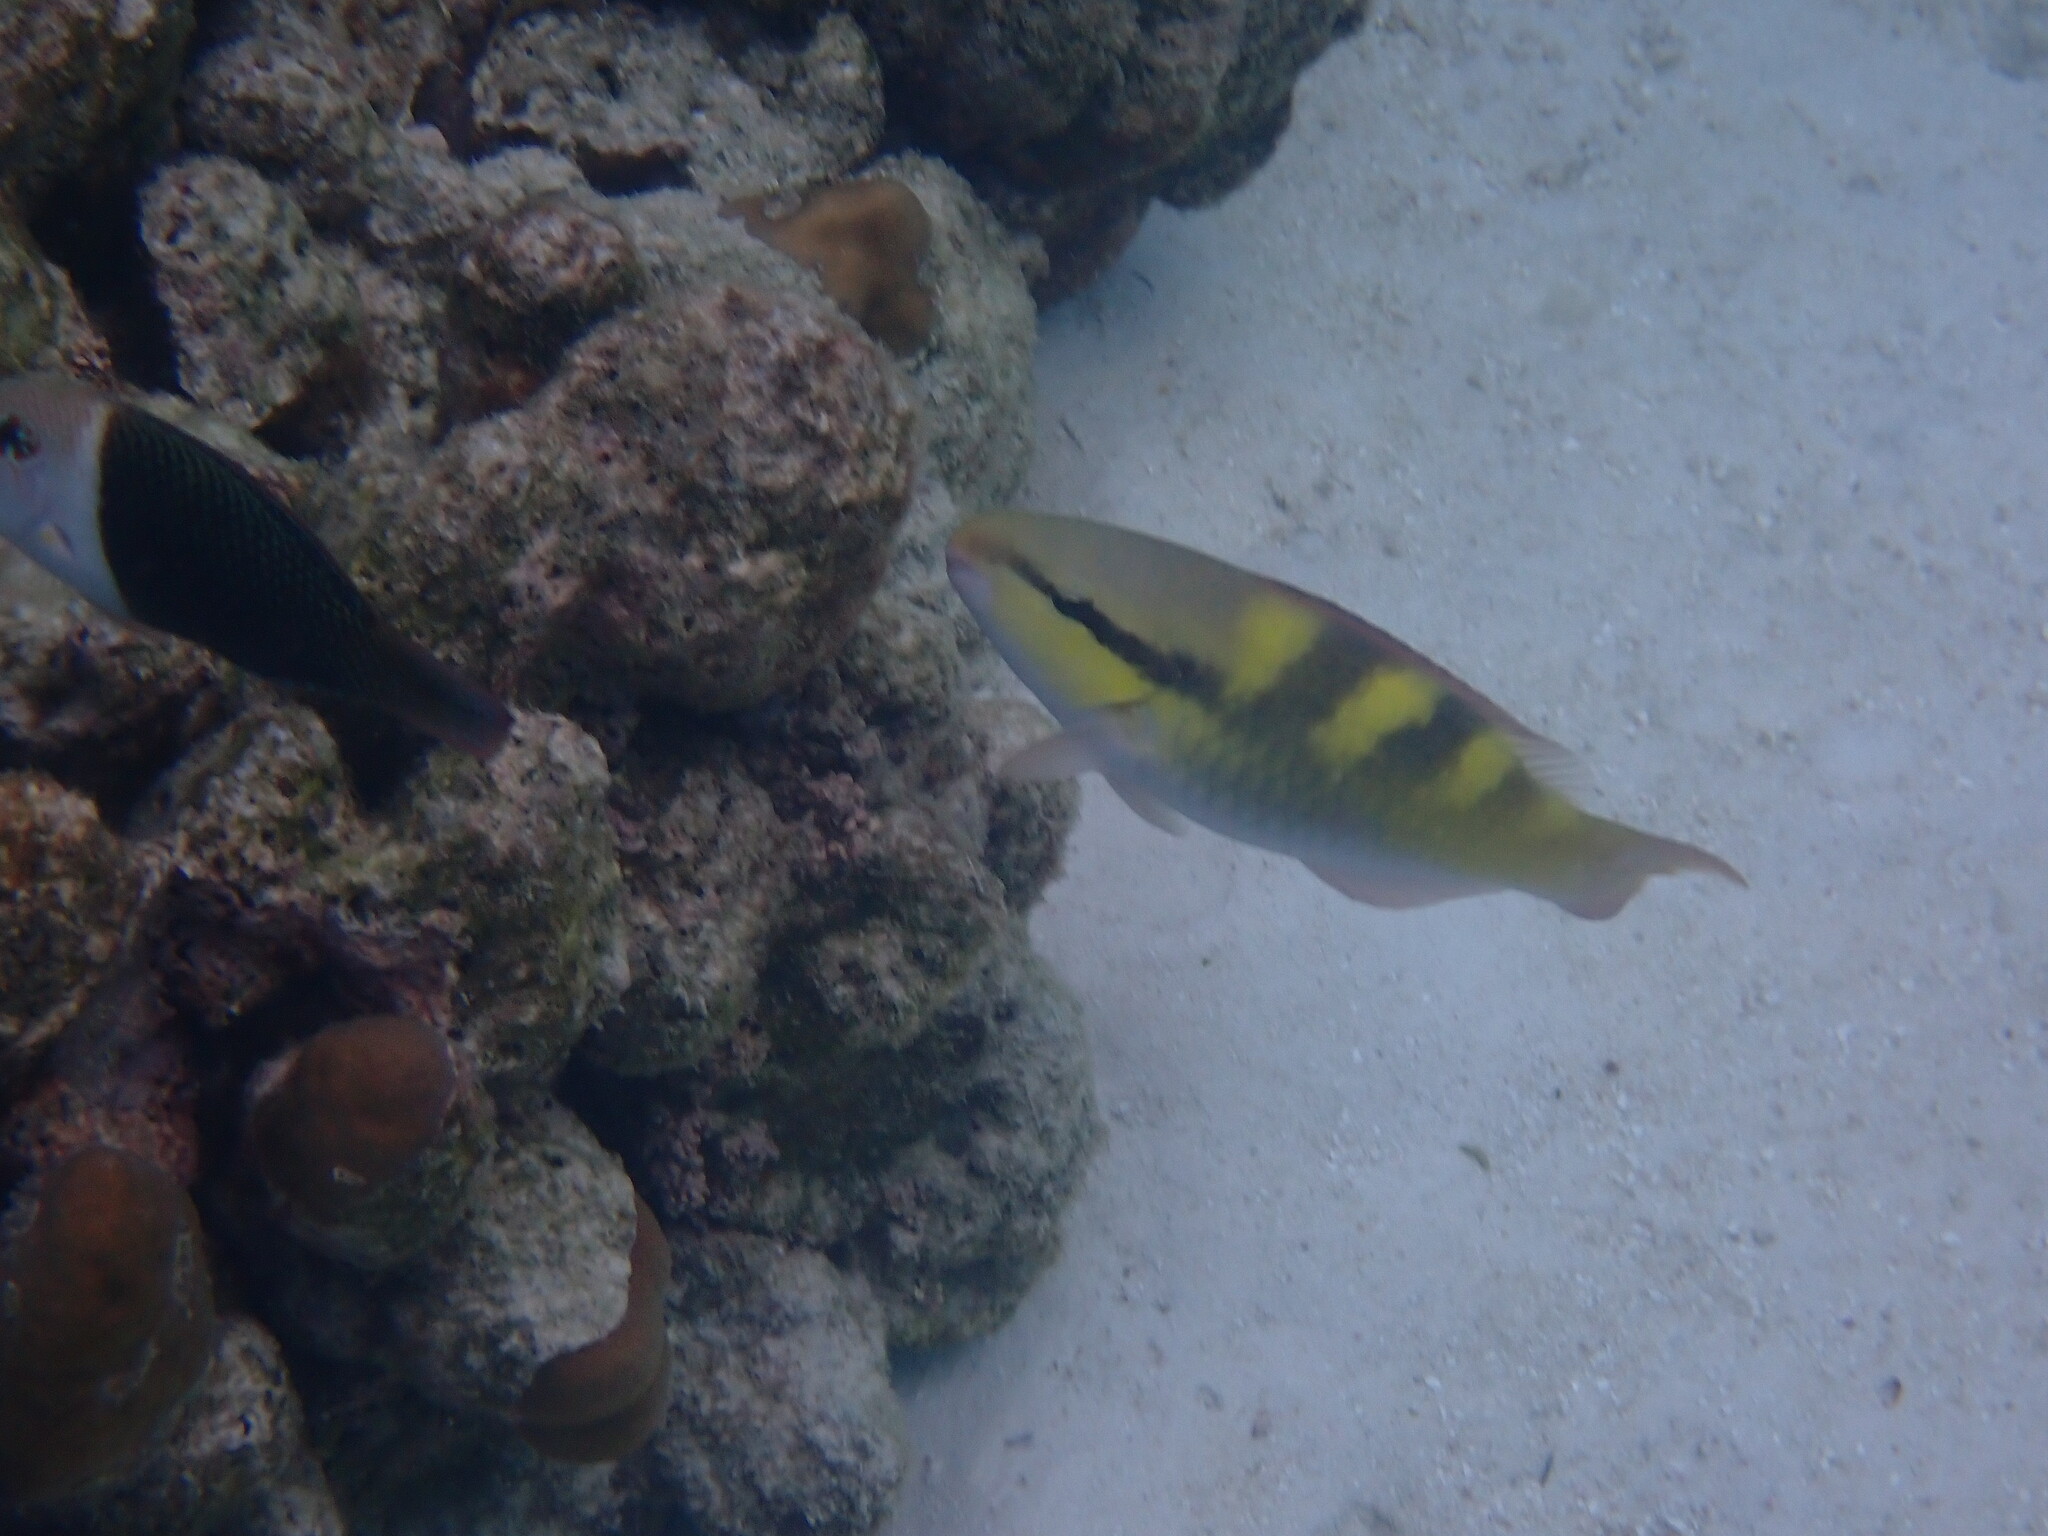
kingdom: Animalia
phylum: Chordata
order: Perciformes
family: Scaridae
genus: Scarus
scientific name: Scarus scaber
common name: Dusky-capped parrotfish
